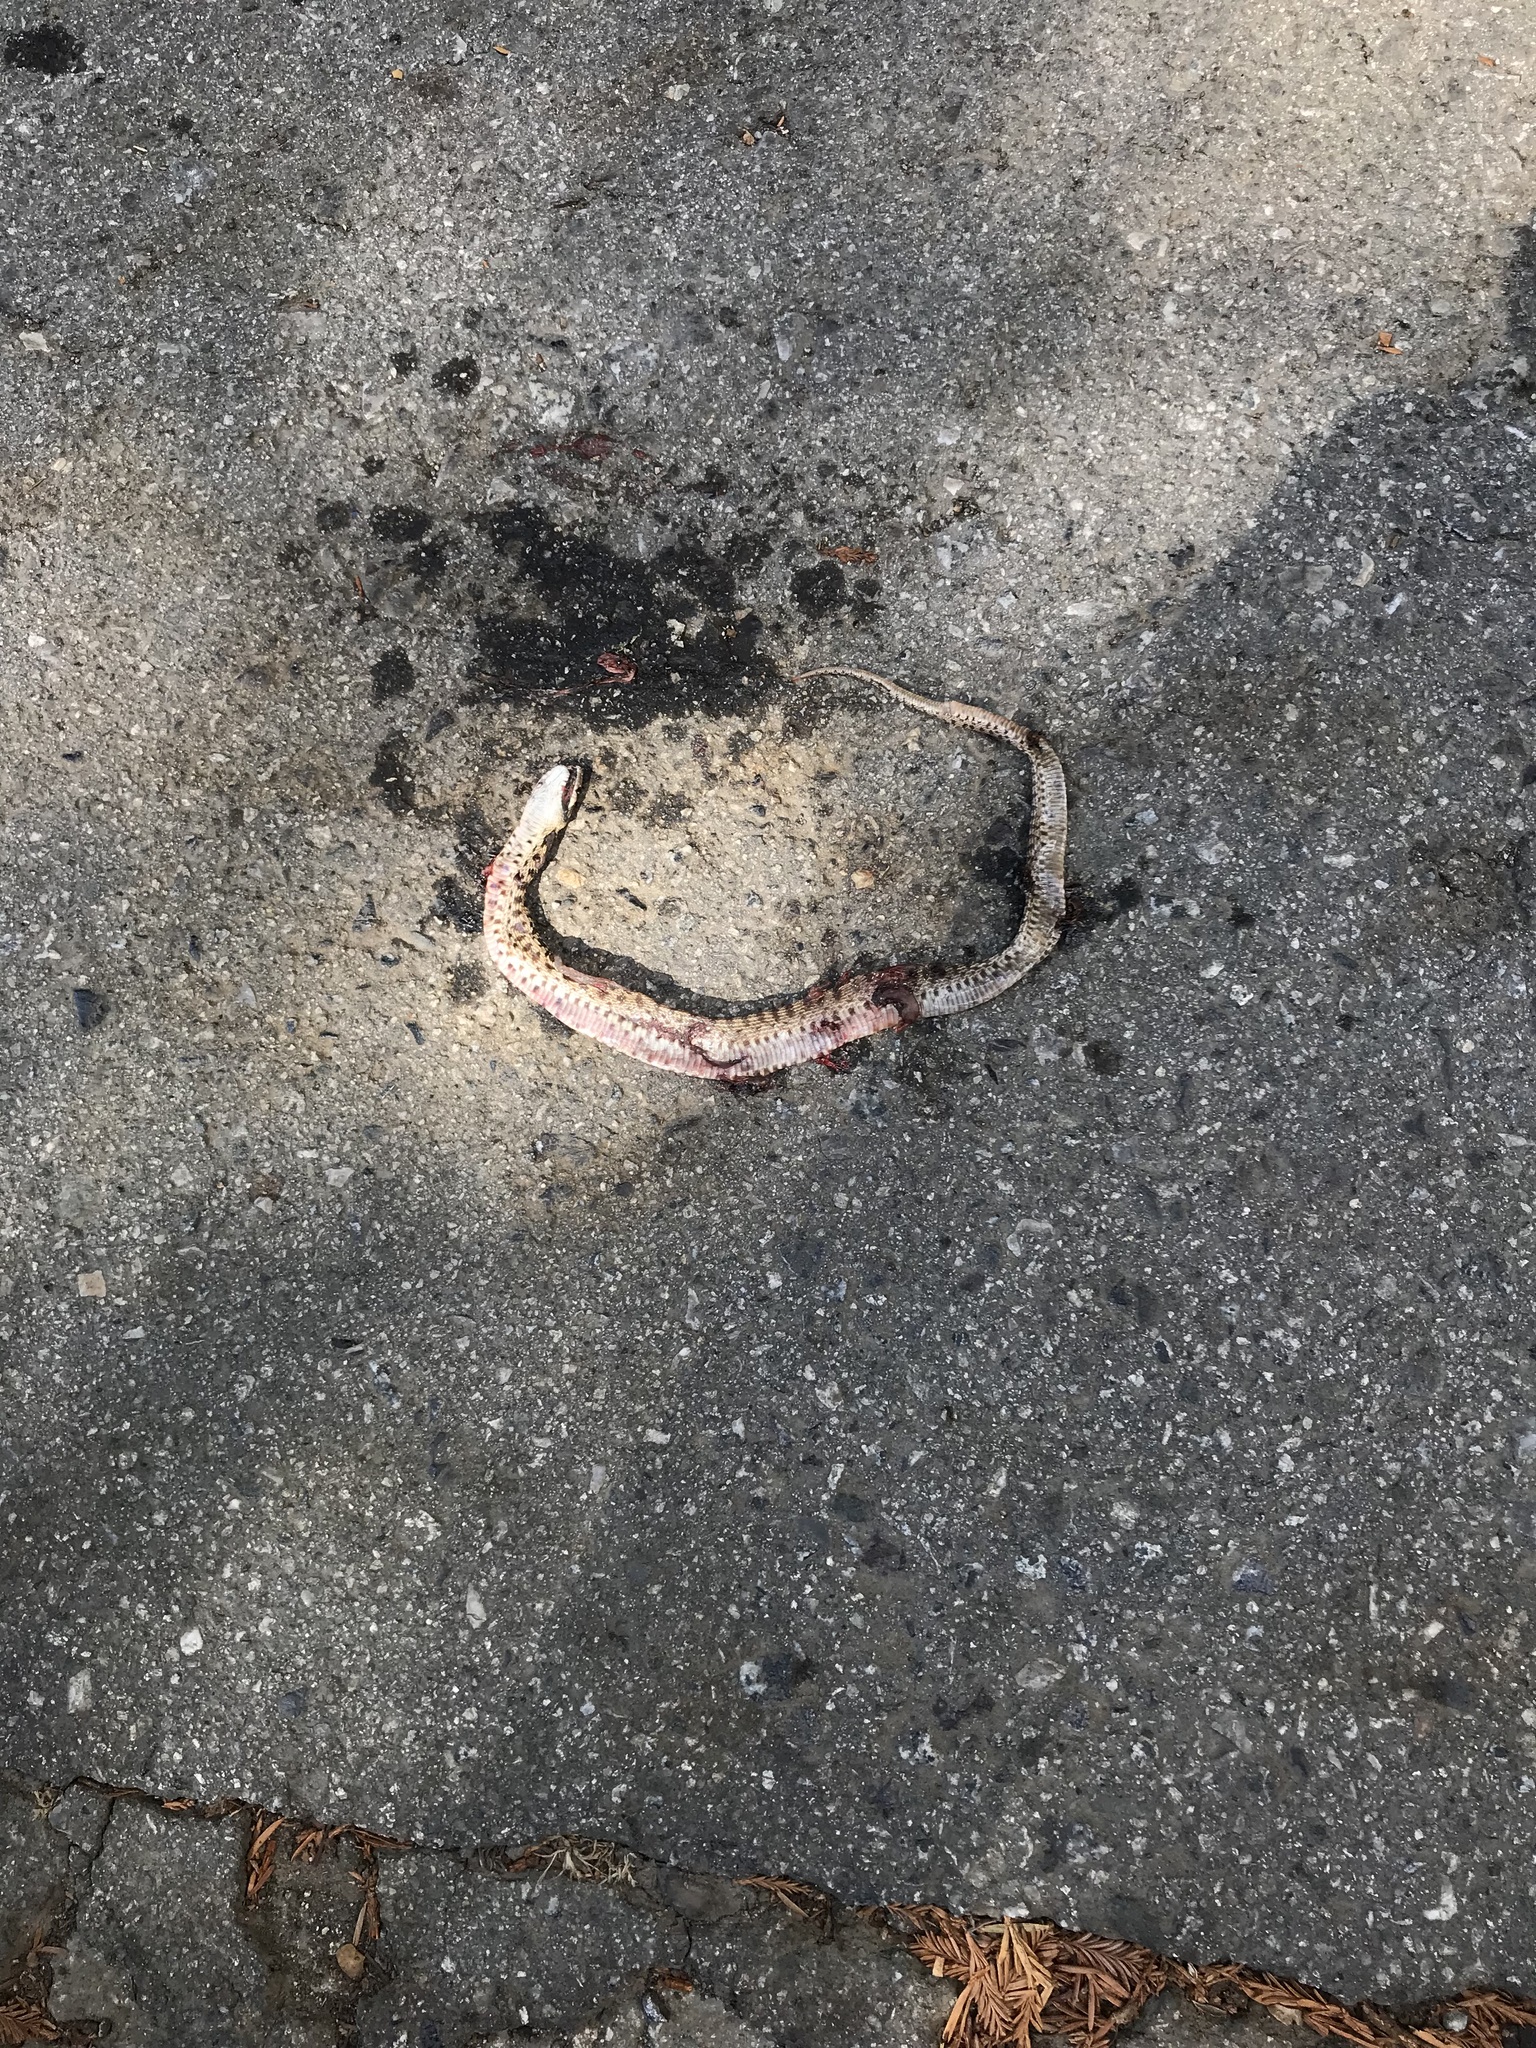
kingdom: Animalia
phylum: Chordata
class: Squamata
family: Colubridae
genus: Pituophis
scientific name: Pituophis catenifer
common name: Gopher snake
